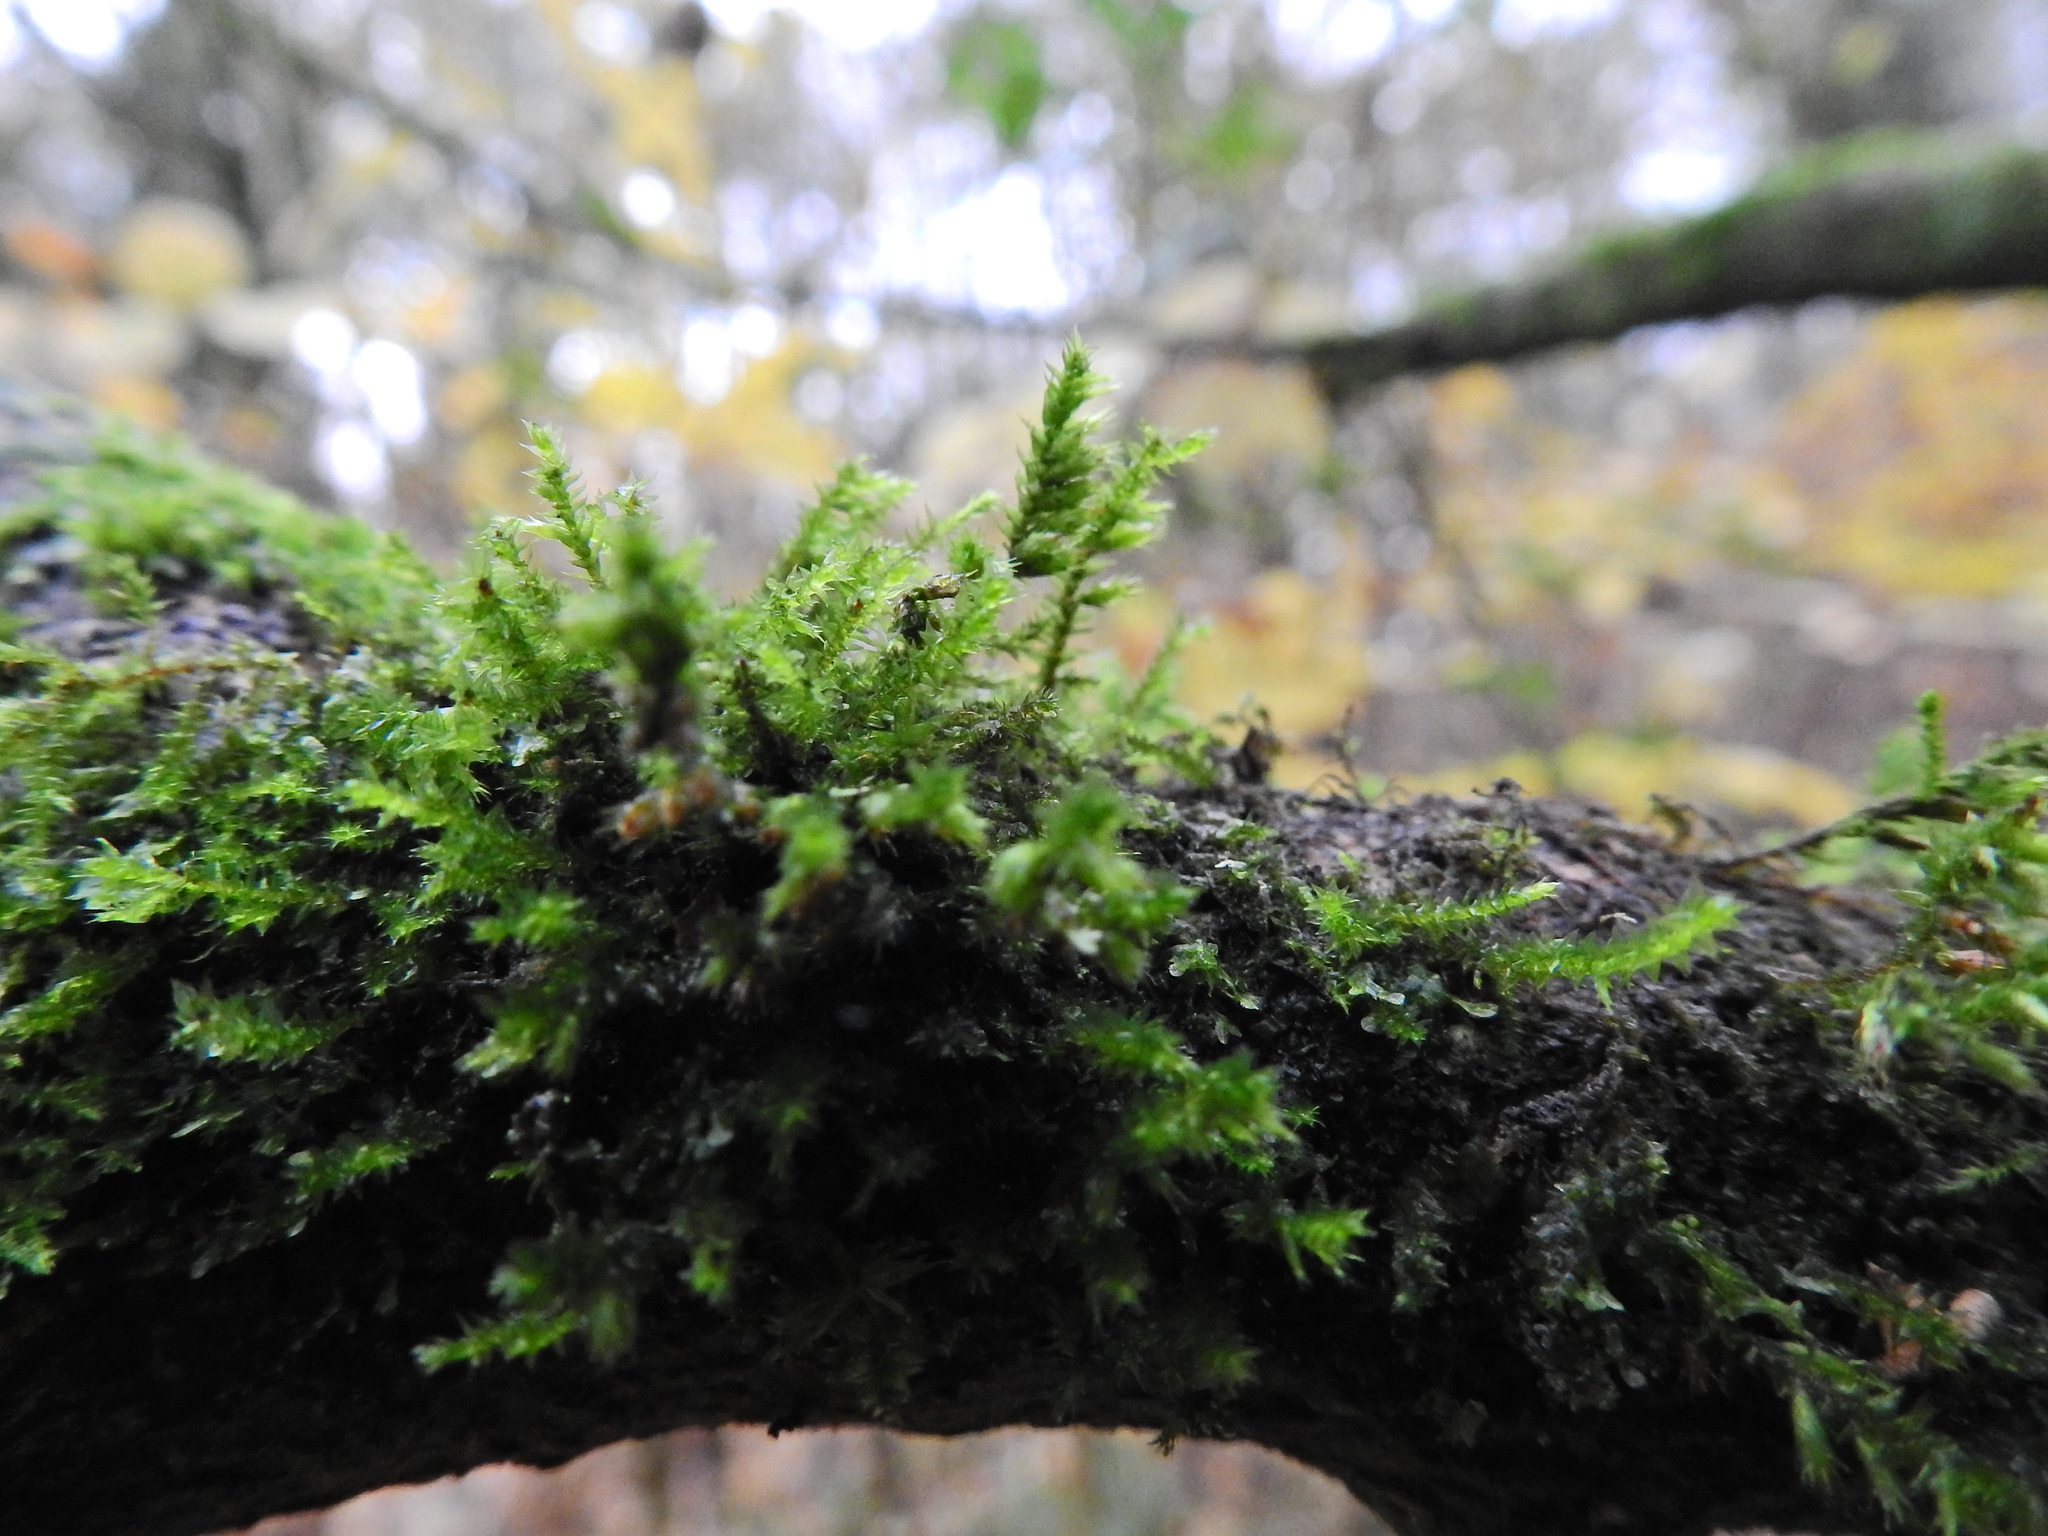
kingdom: Plantae
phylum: Bryophyta
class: Bryopsida
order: Hypnales
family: Cryphaeaceae
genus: Cryphaea
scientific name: Cryphaea heteromalla
